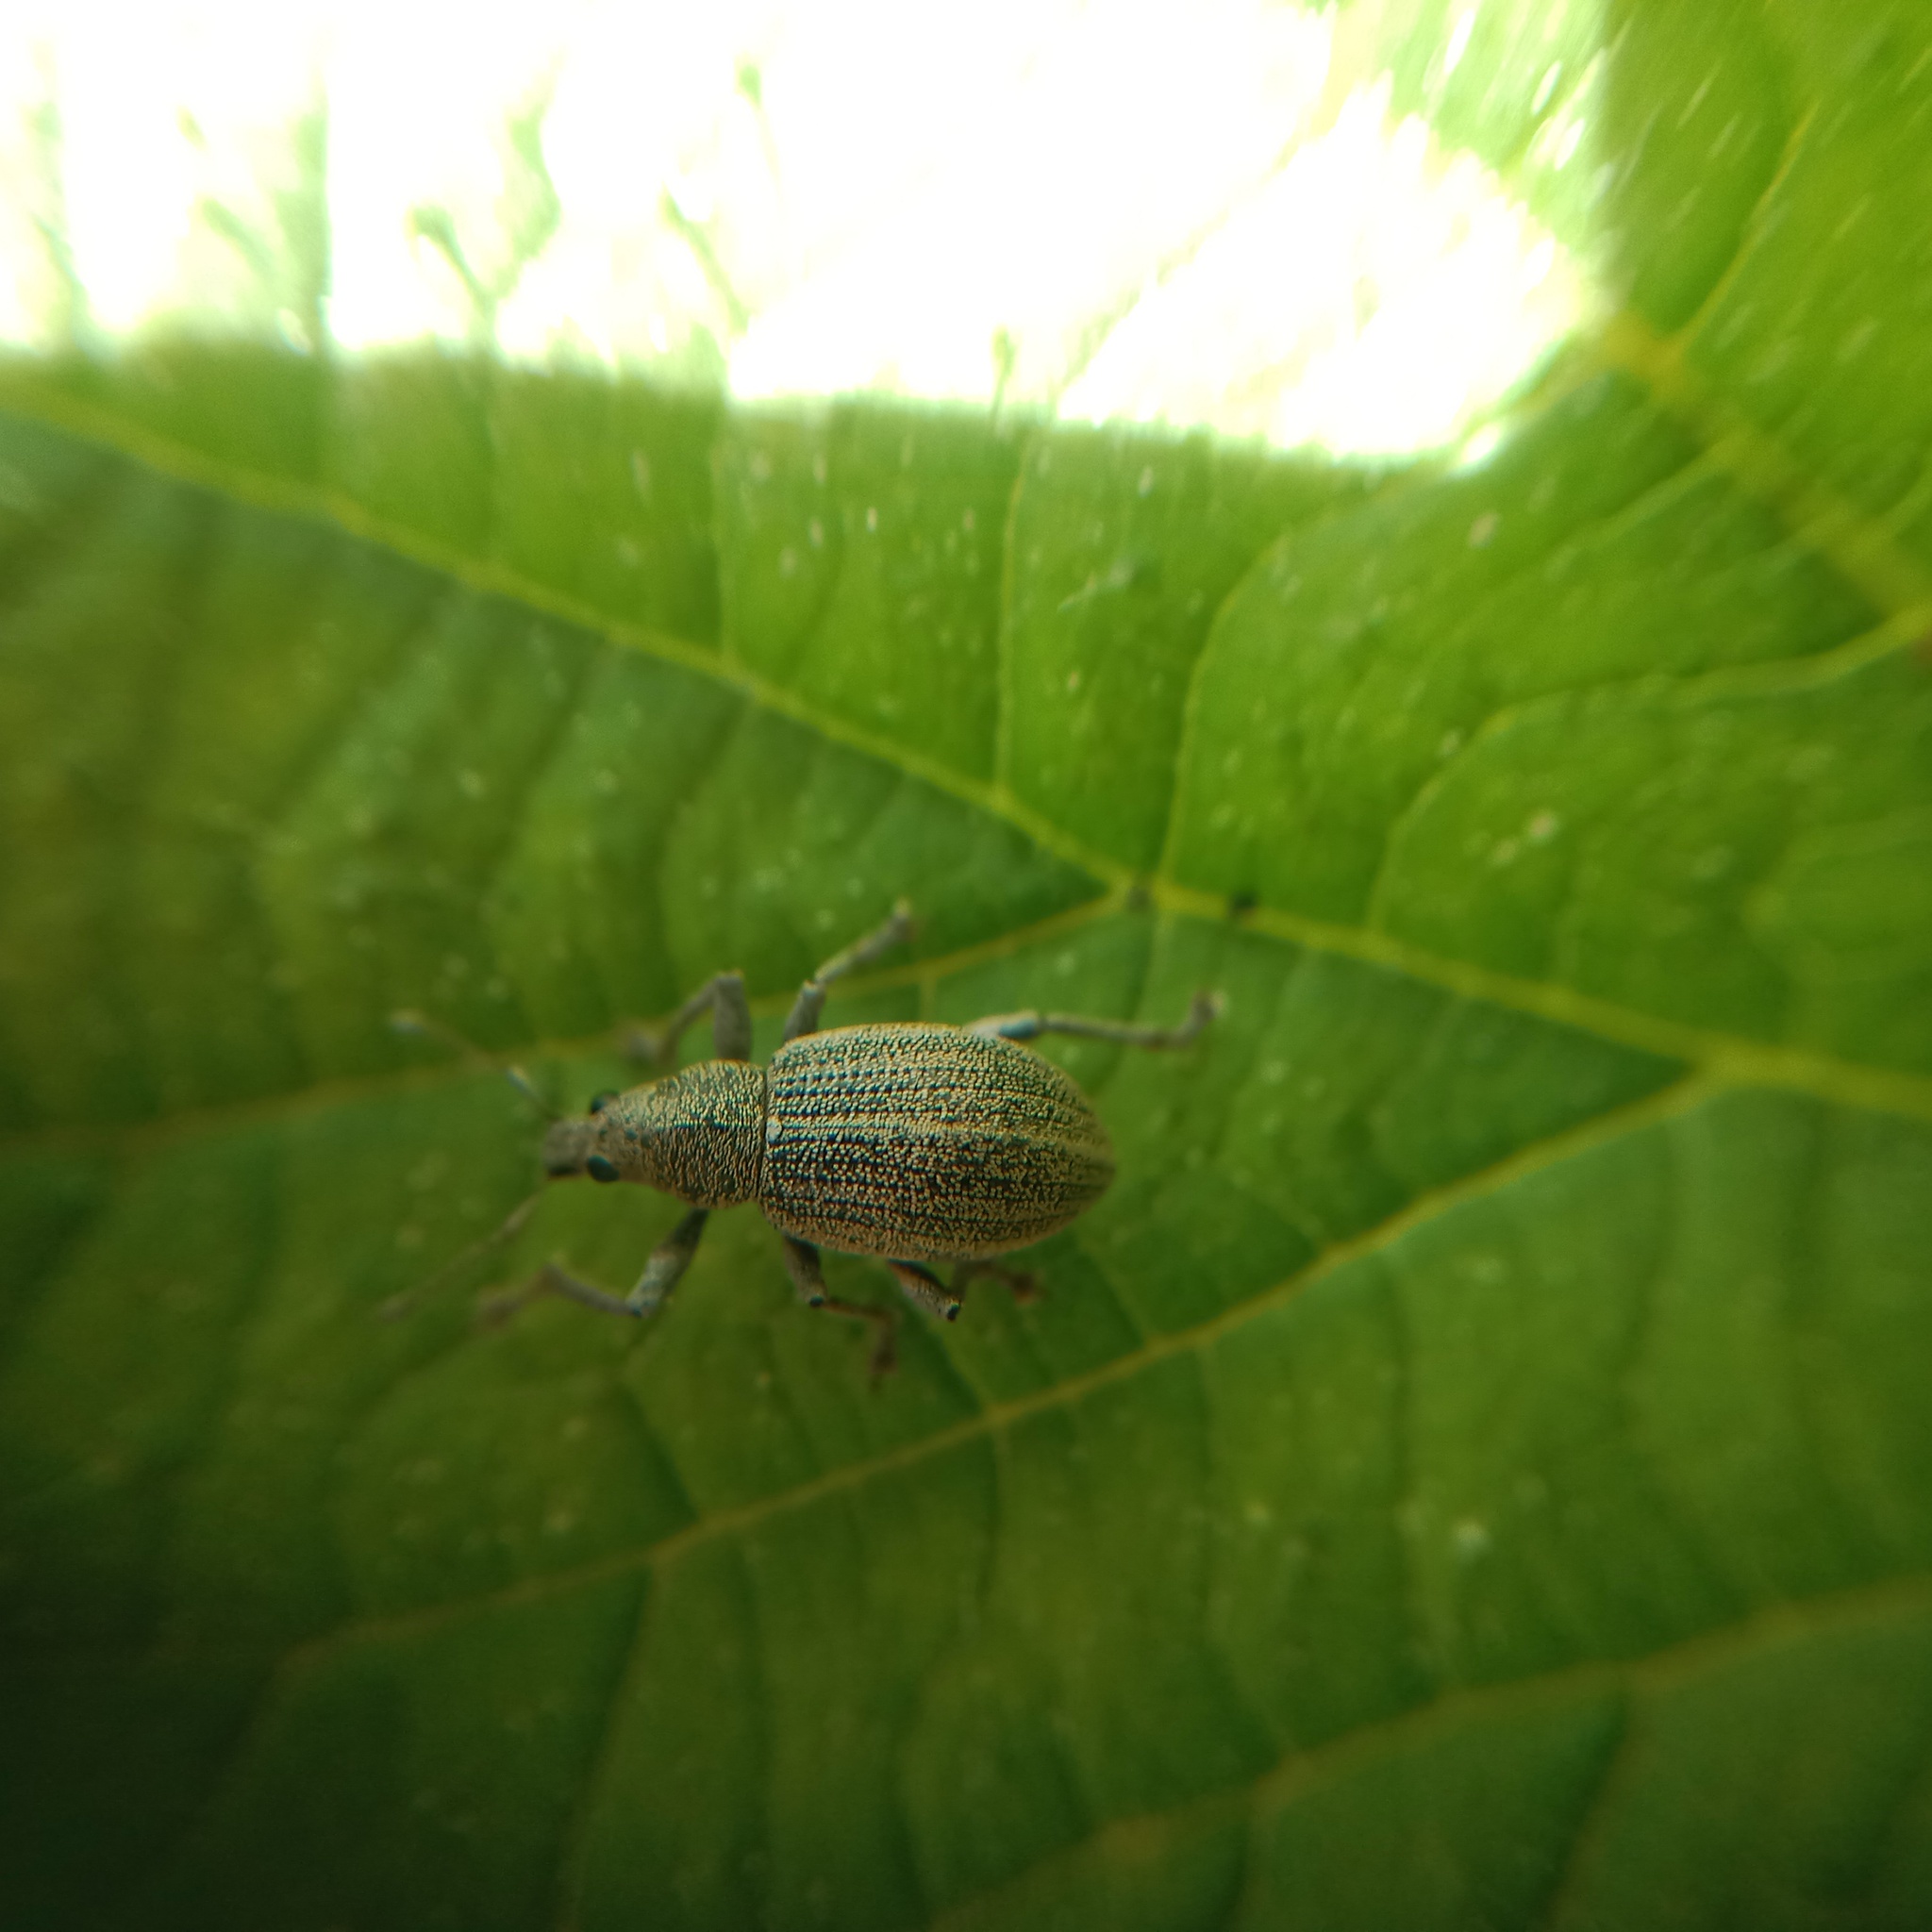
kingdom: Animalia
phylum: Arthropoda
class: Insecta
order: Coleoptera
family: Curculionidae
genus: Sciaphobus
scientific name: Sciaphobus squalidus
